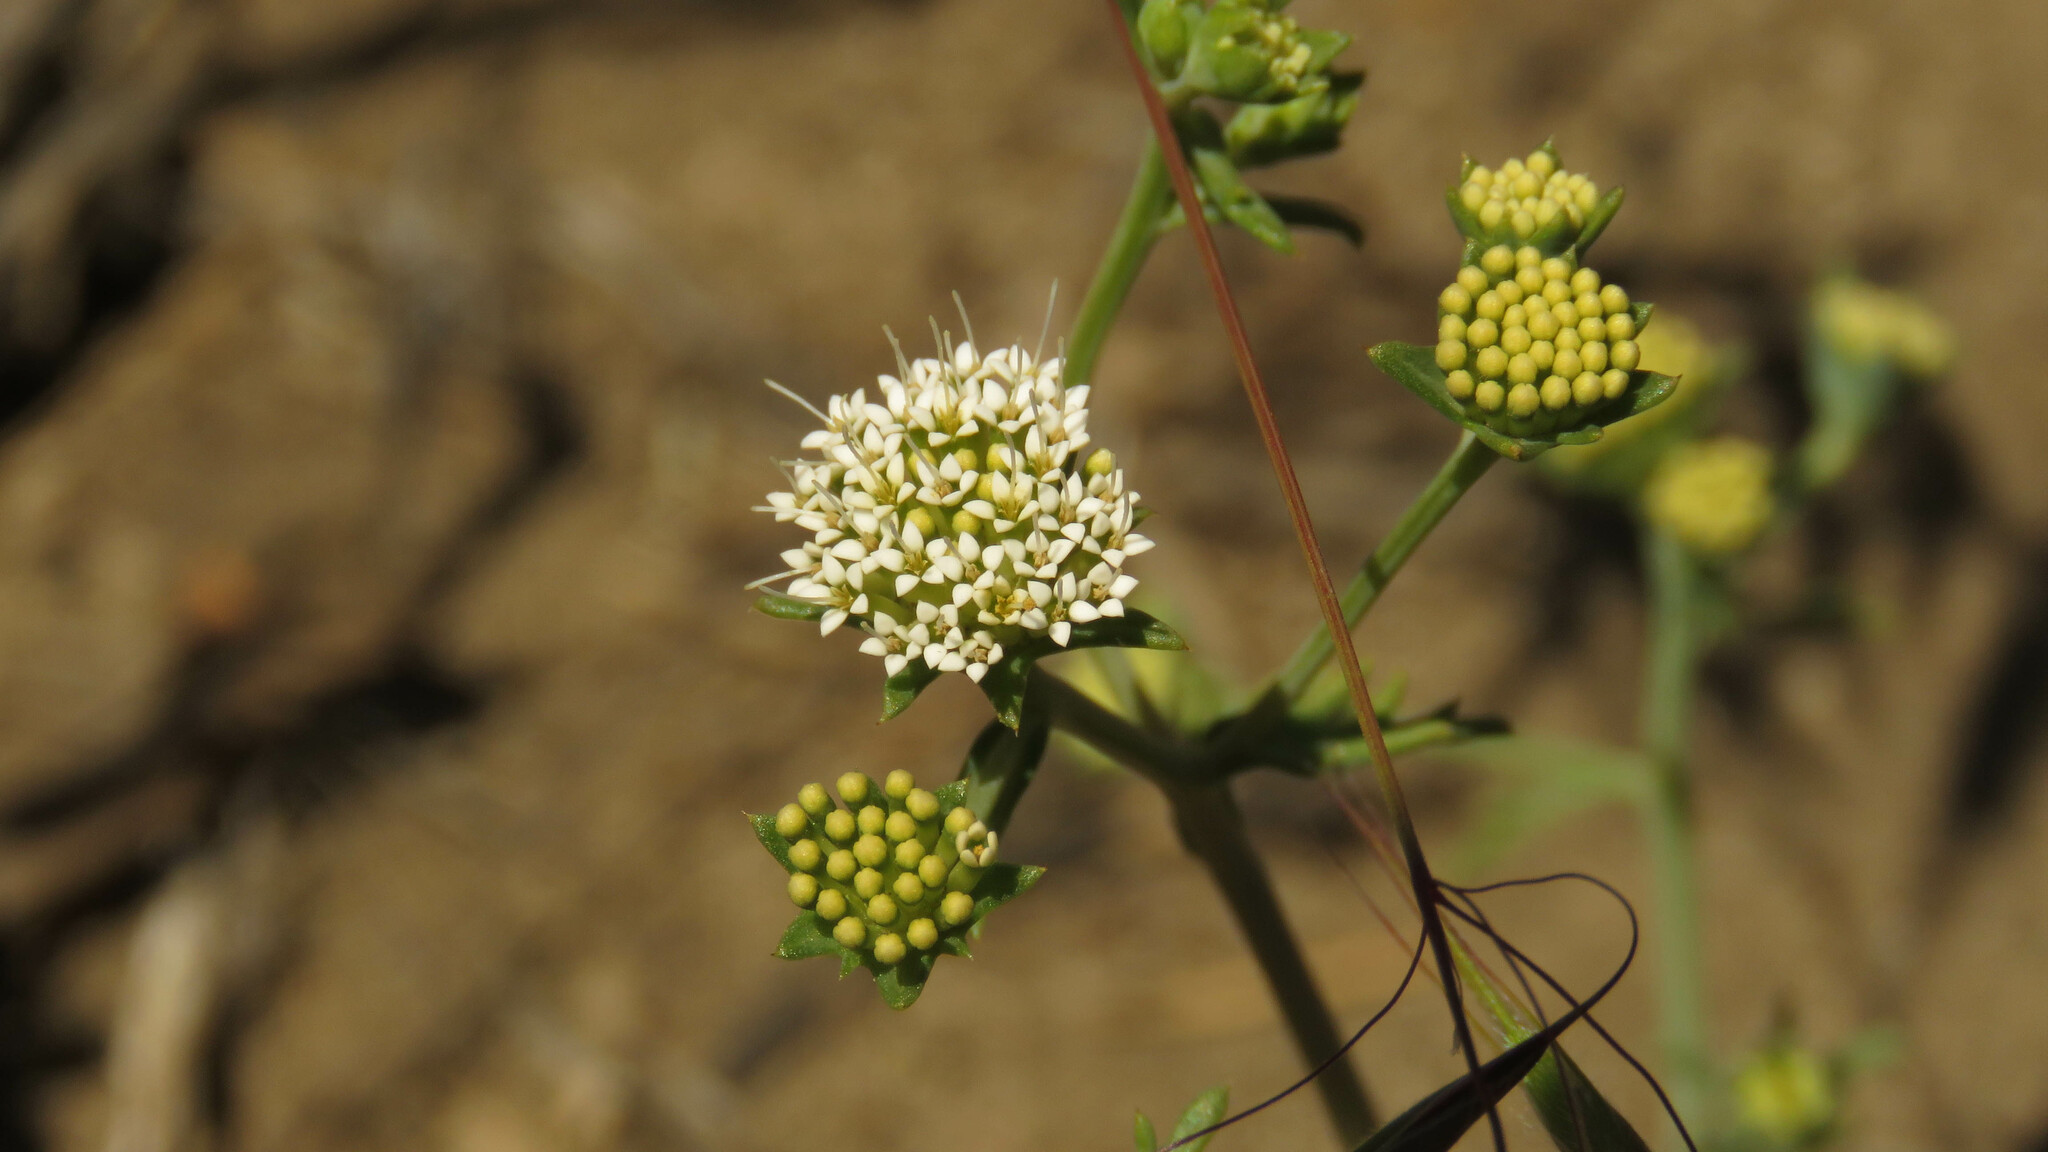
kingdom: Plantae
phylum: Tracheophyta
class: Magnoliopsida
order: Asterales
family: Calyceraceae
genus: Asynthema
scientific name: Asynthema gracile
